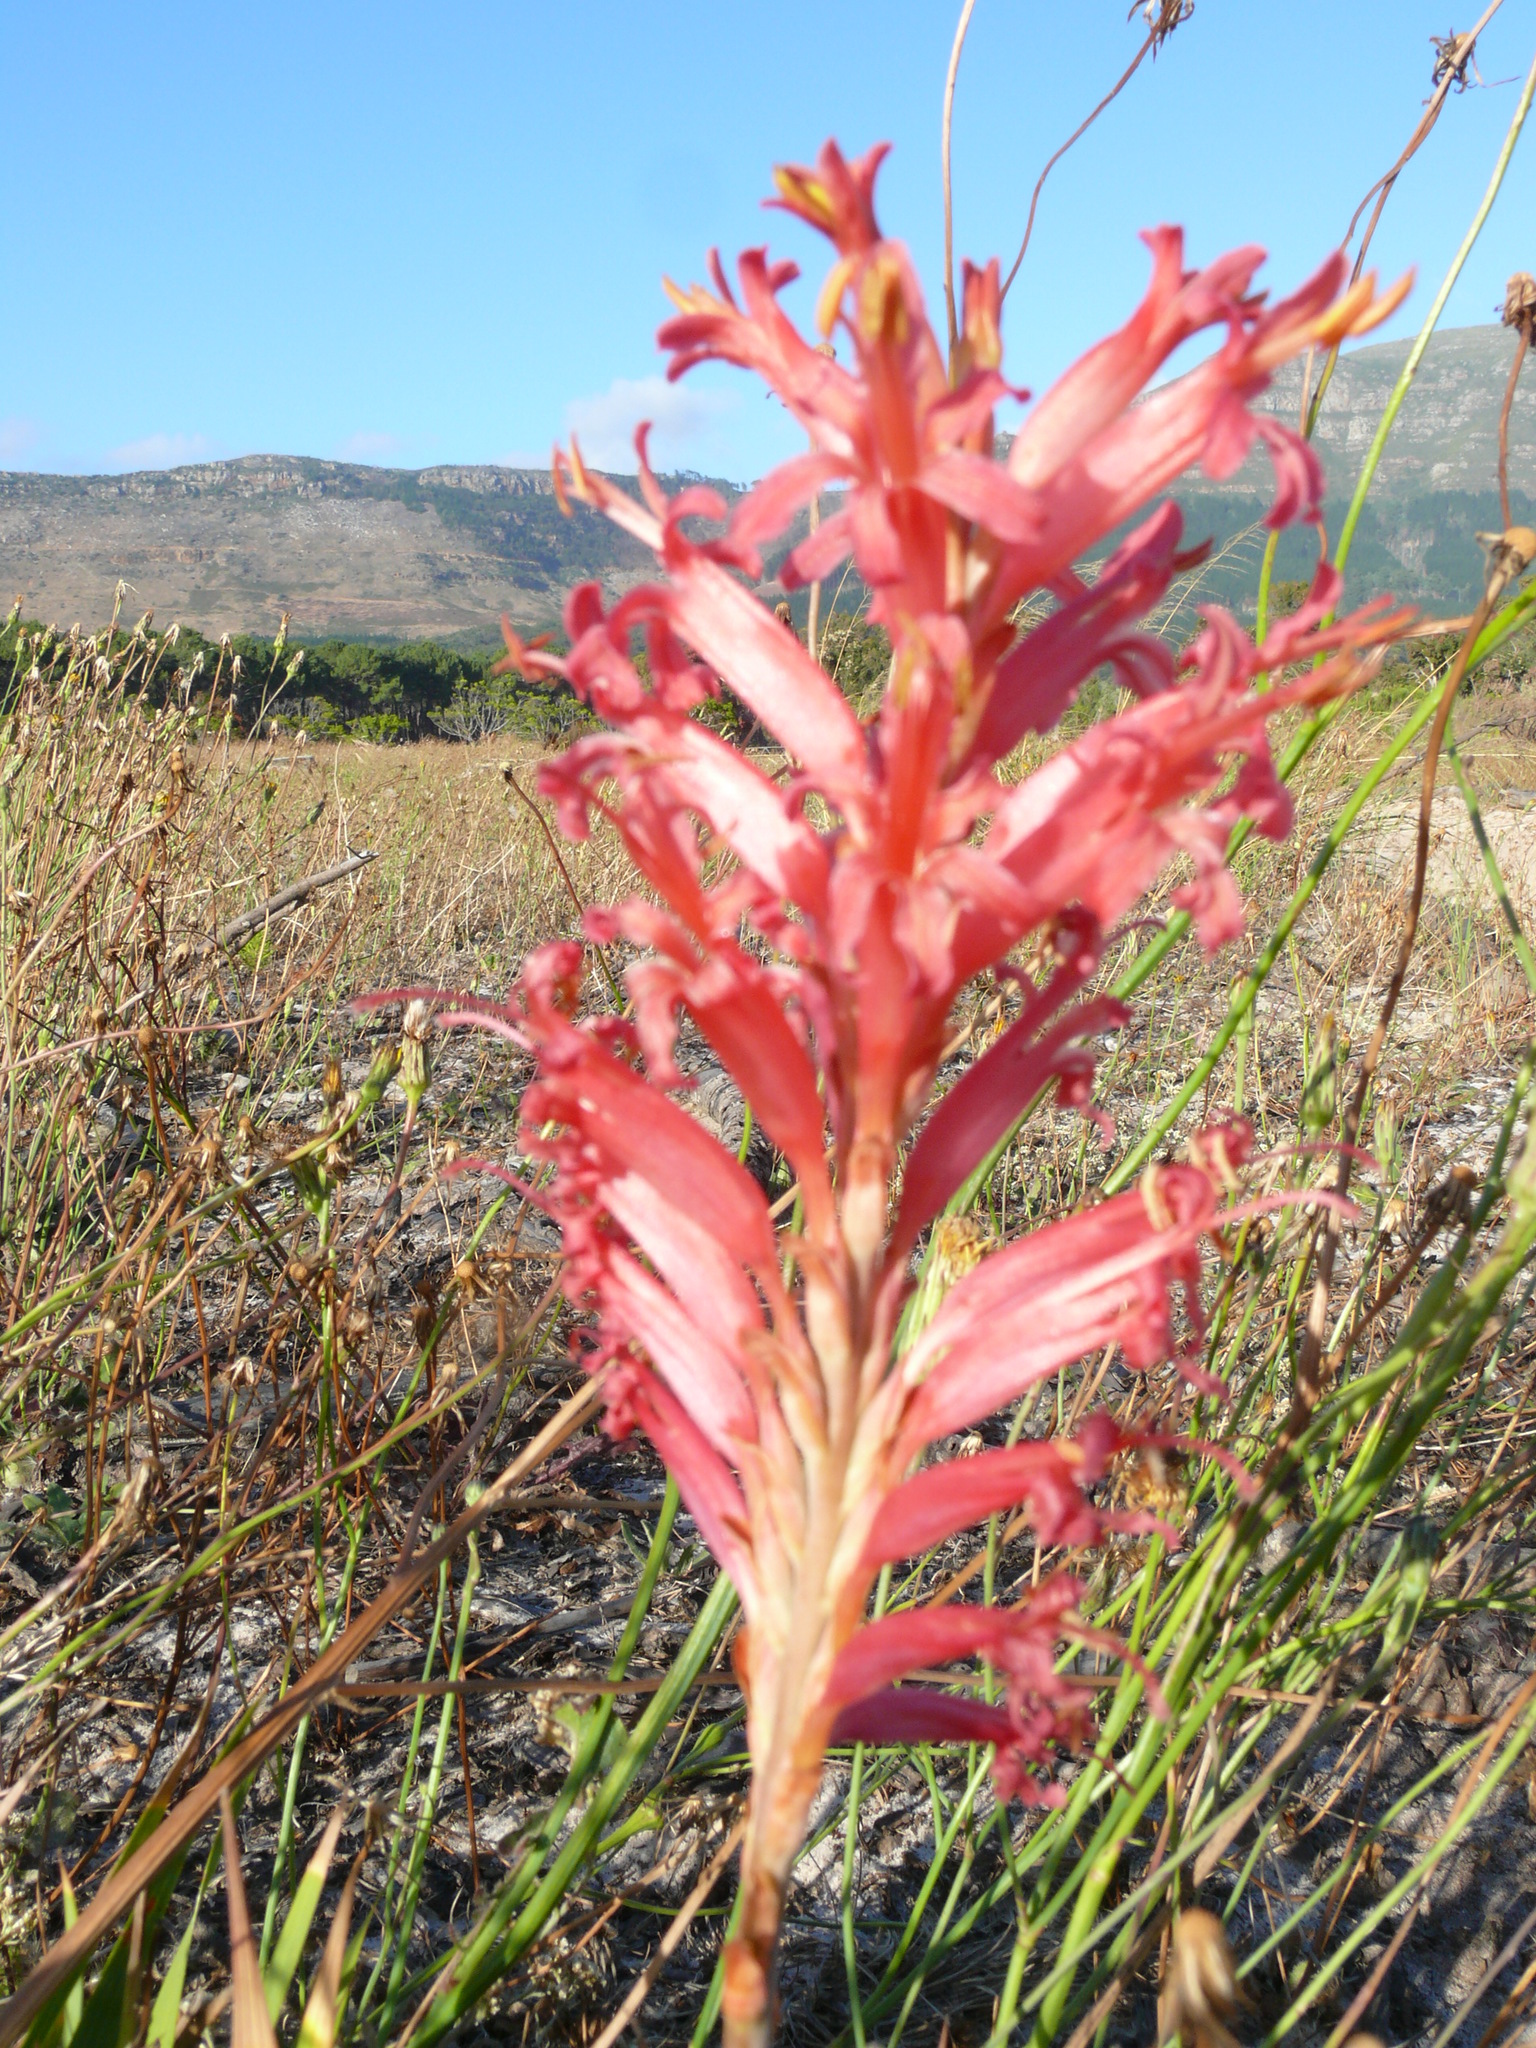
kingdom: Plantae
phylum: Tracheophyta
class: Liliopsida
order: Asparagales
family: Iridaceae
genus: Tritoniopsis
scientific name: Tritoniopsis antholyza
